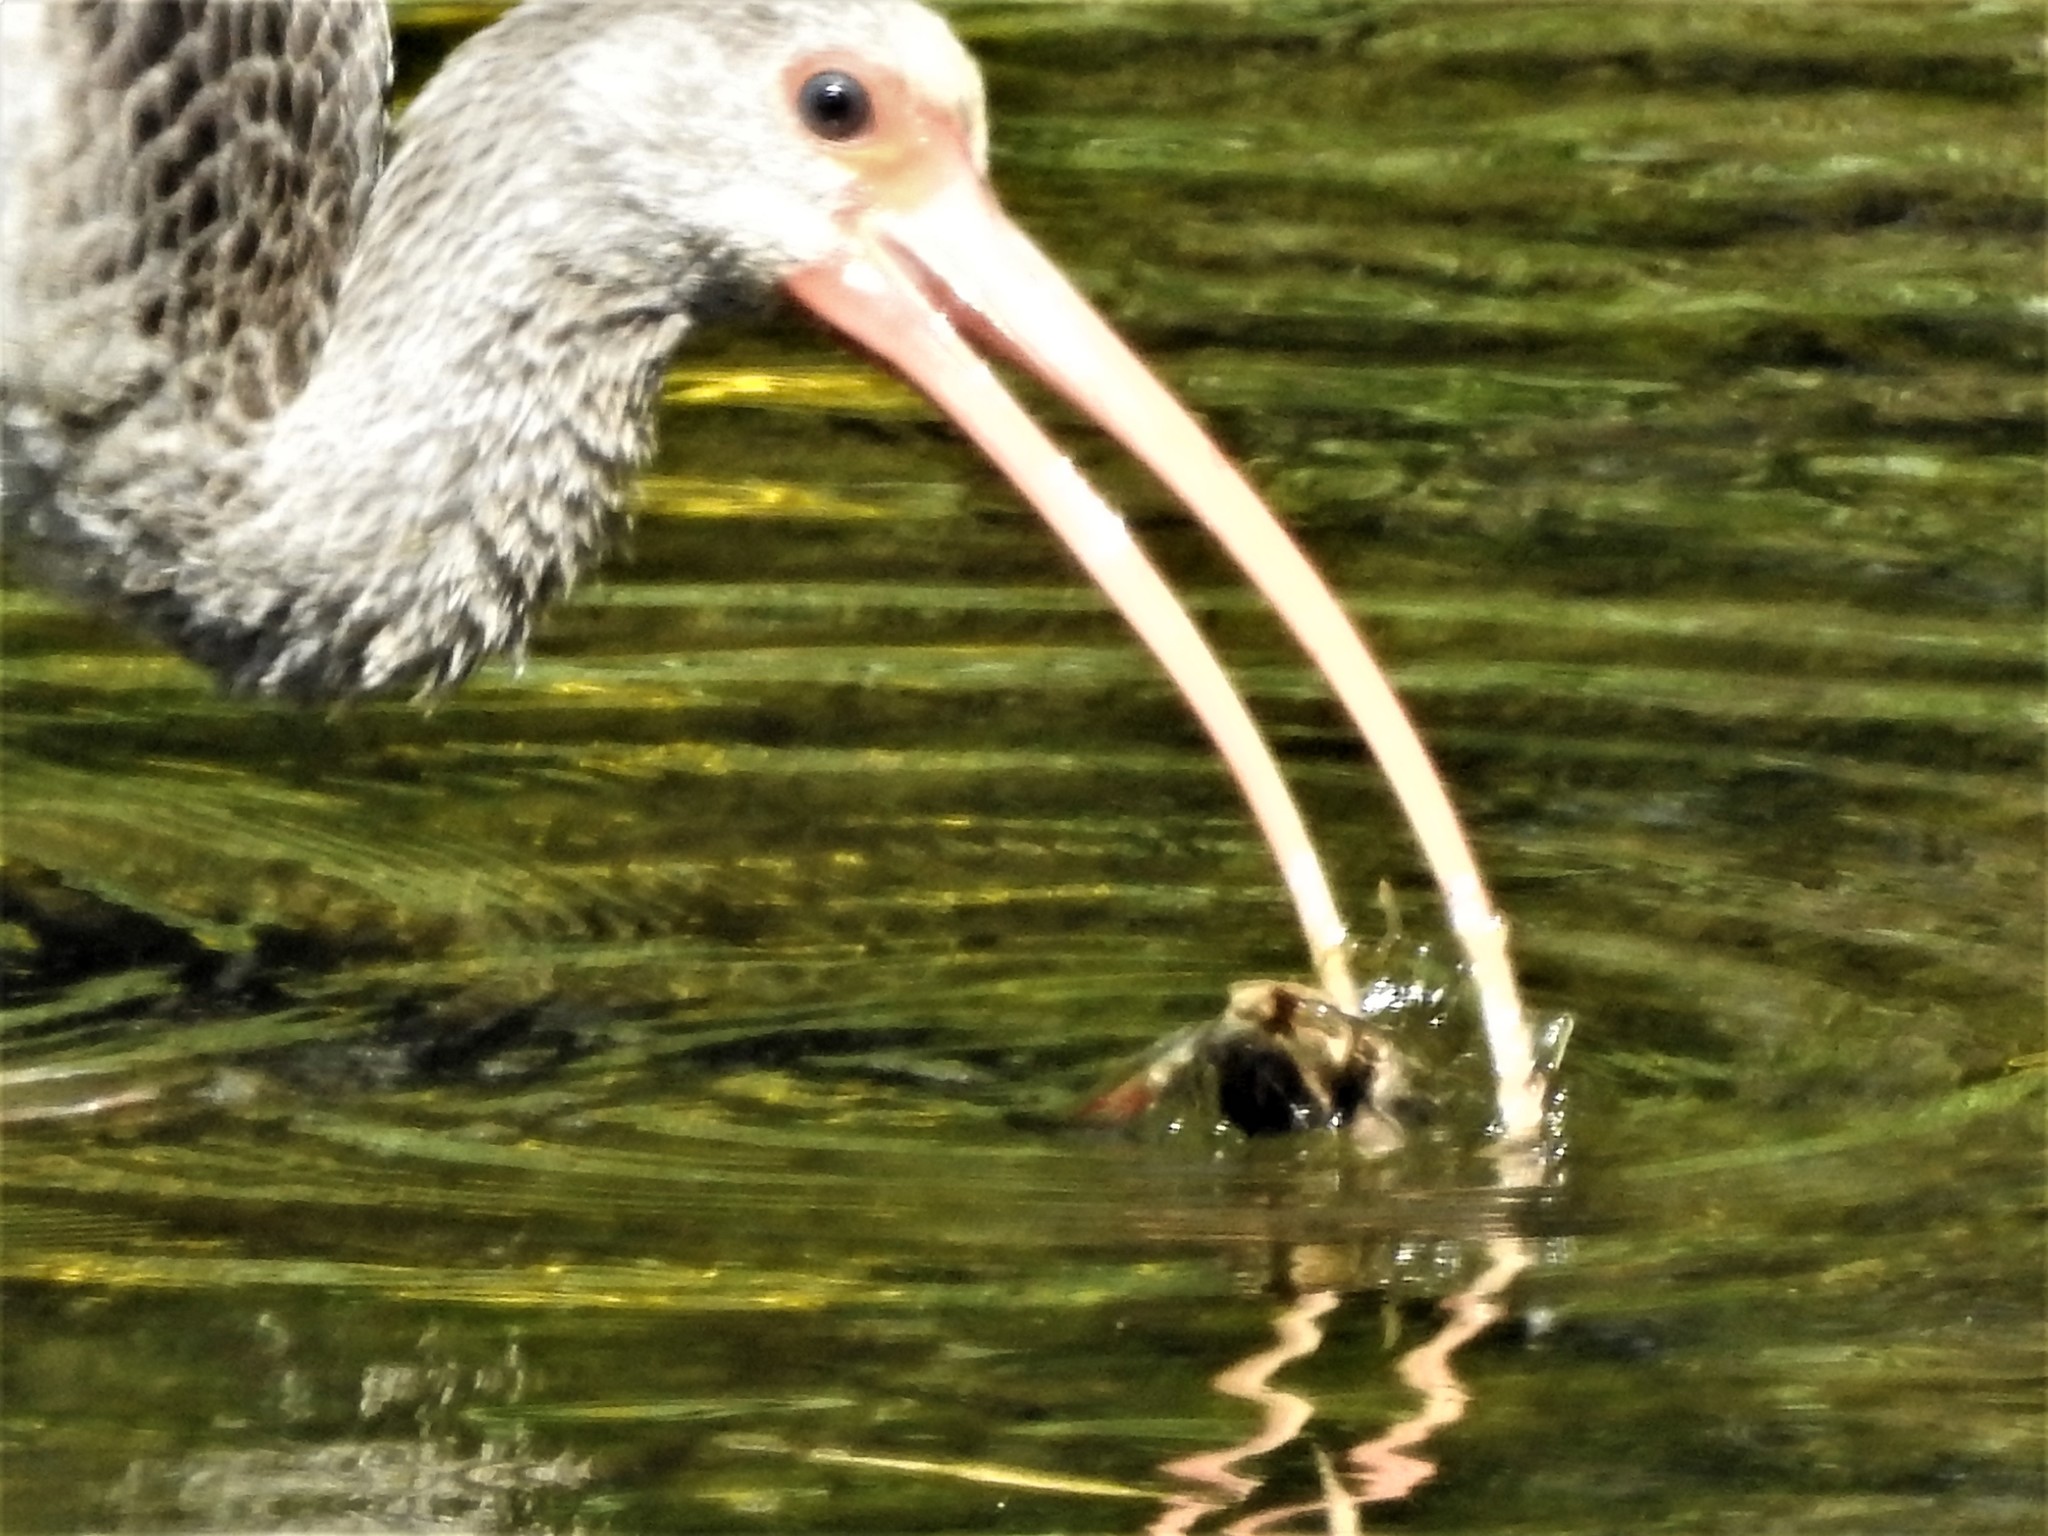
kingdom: Animalia
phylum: Chordata
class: Aves
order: Pelecaniformes
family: Threskiornithidae
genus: Eudocimus
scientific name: Eudocimus albus
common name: White ibis
